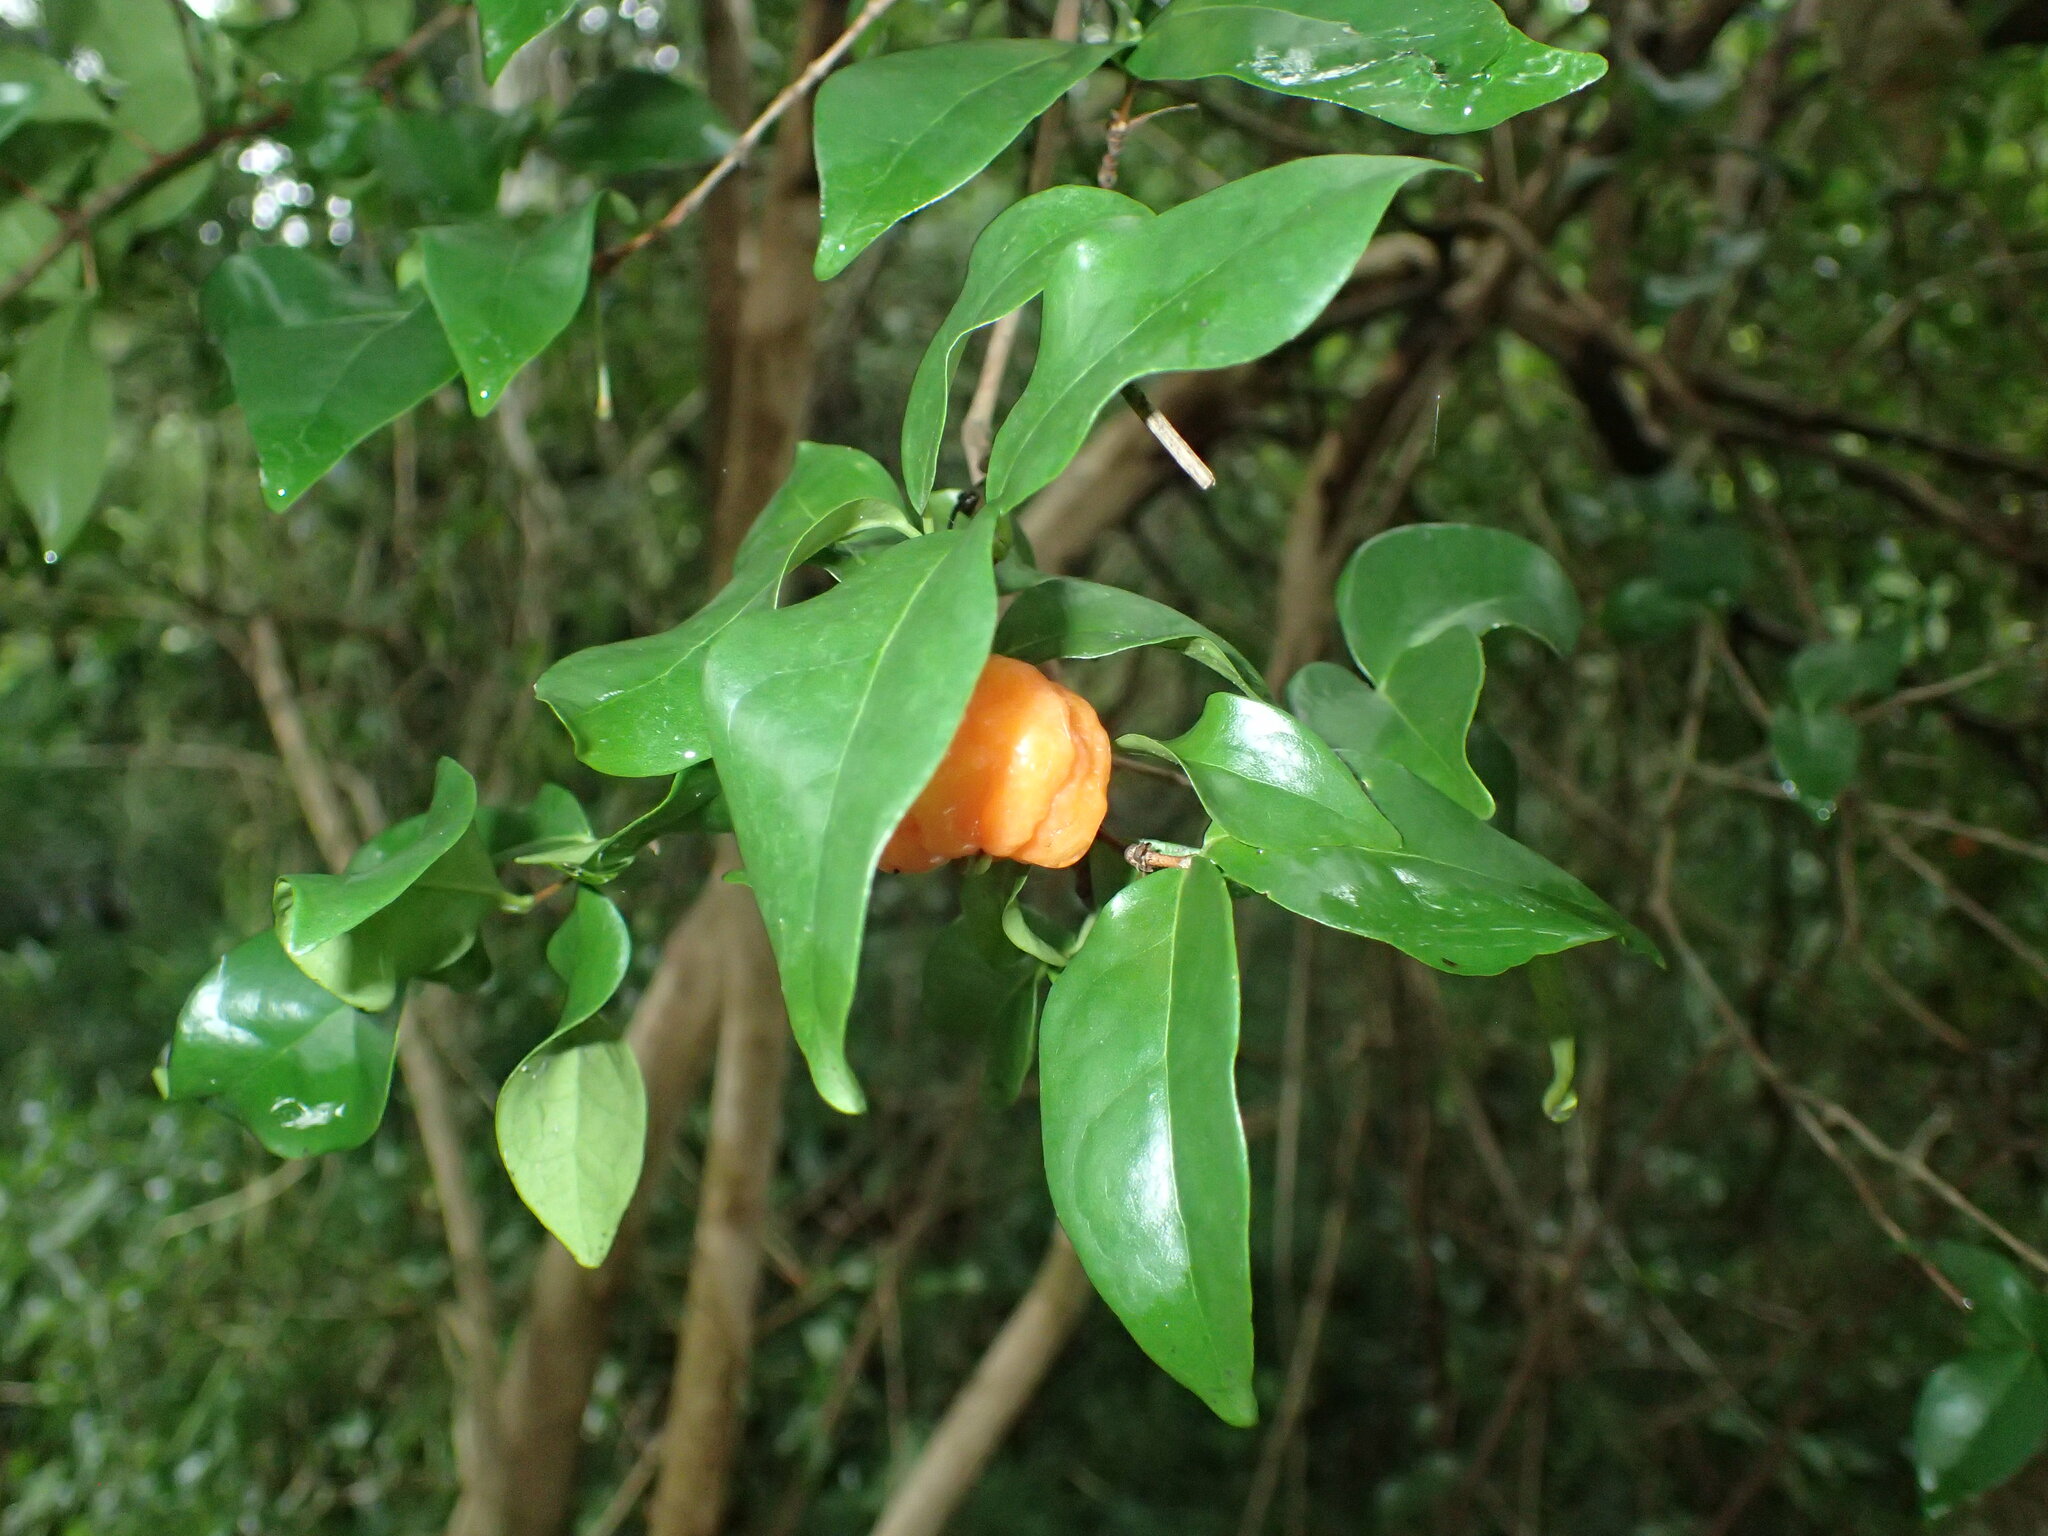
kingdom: Plantae
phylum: Tracheophyta
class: Magnoliopsida
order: Myrtales
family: Myrtaceae
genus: Eugenia
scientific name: Eugenia uniflora
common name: Surinam cherry
